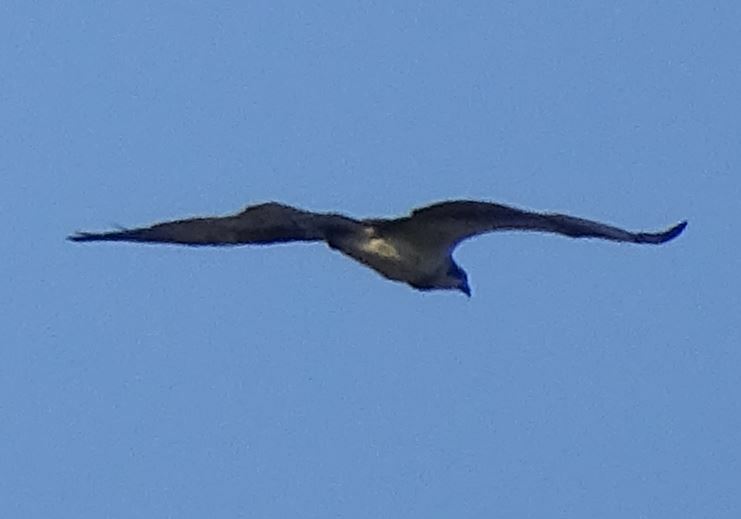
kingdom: Animalia
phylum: Chordata
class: Aves
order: Accipitriformes
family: Pandionidae
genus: Pandion
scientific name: Pandion haliaetus
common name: Osprey
